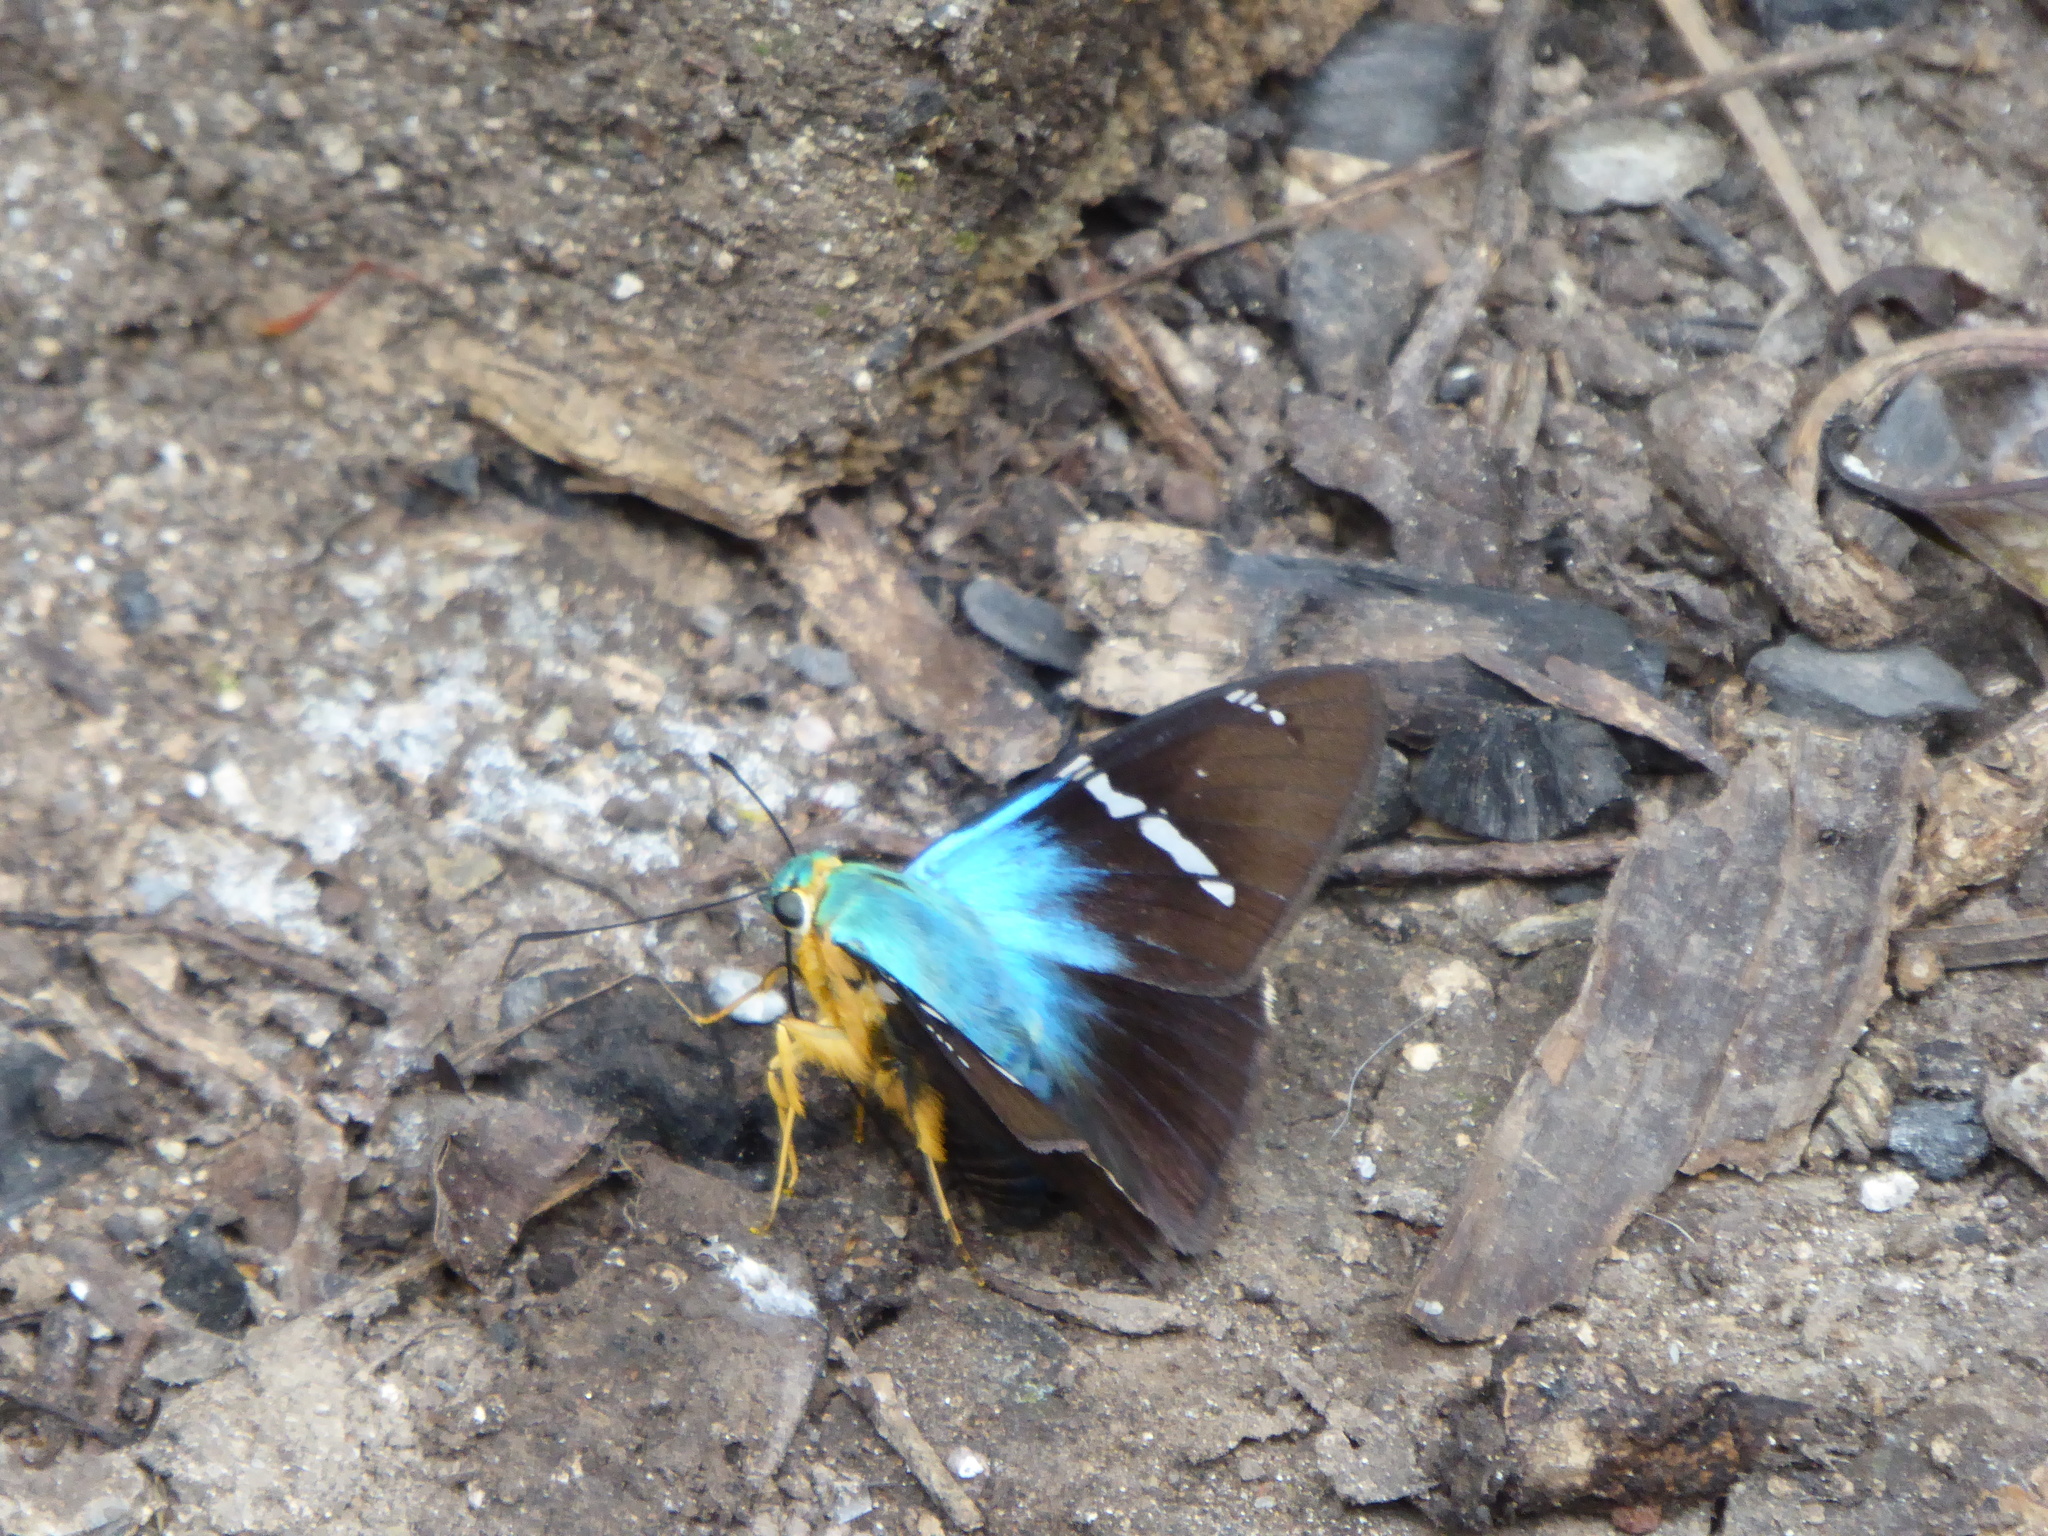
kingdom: Animalia
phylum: Arthropoda
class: Insecta
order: Lepidoptera
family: Hesperiidae
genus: Astraptes
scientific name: Astraptes fulgerator
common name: Two-barred flasher
